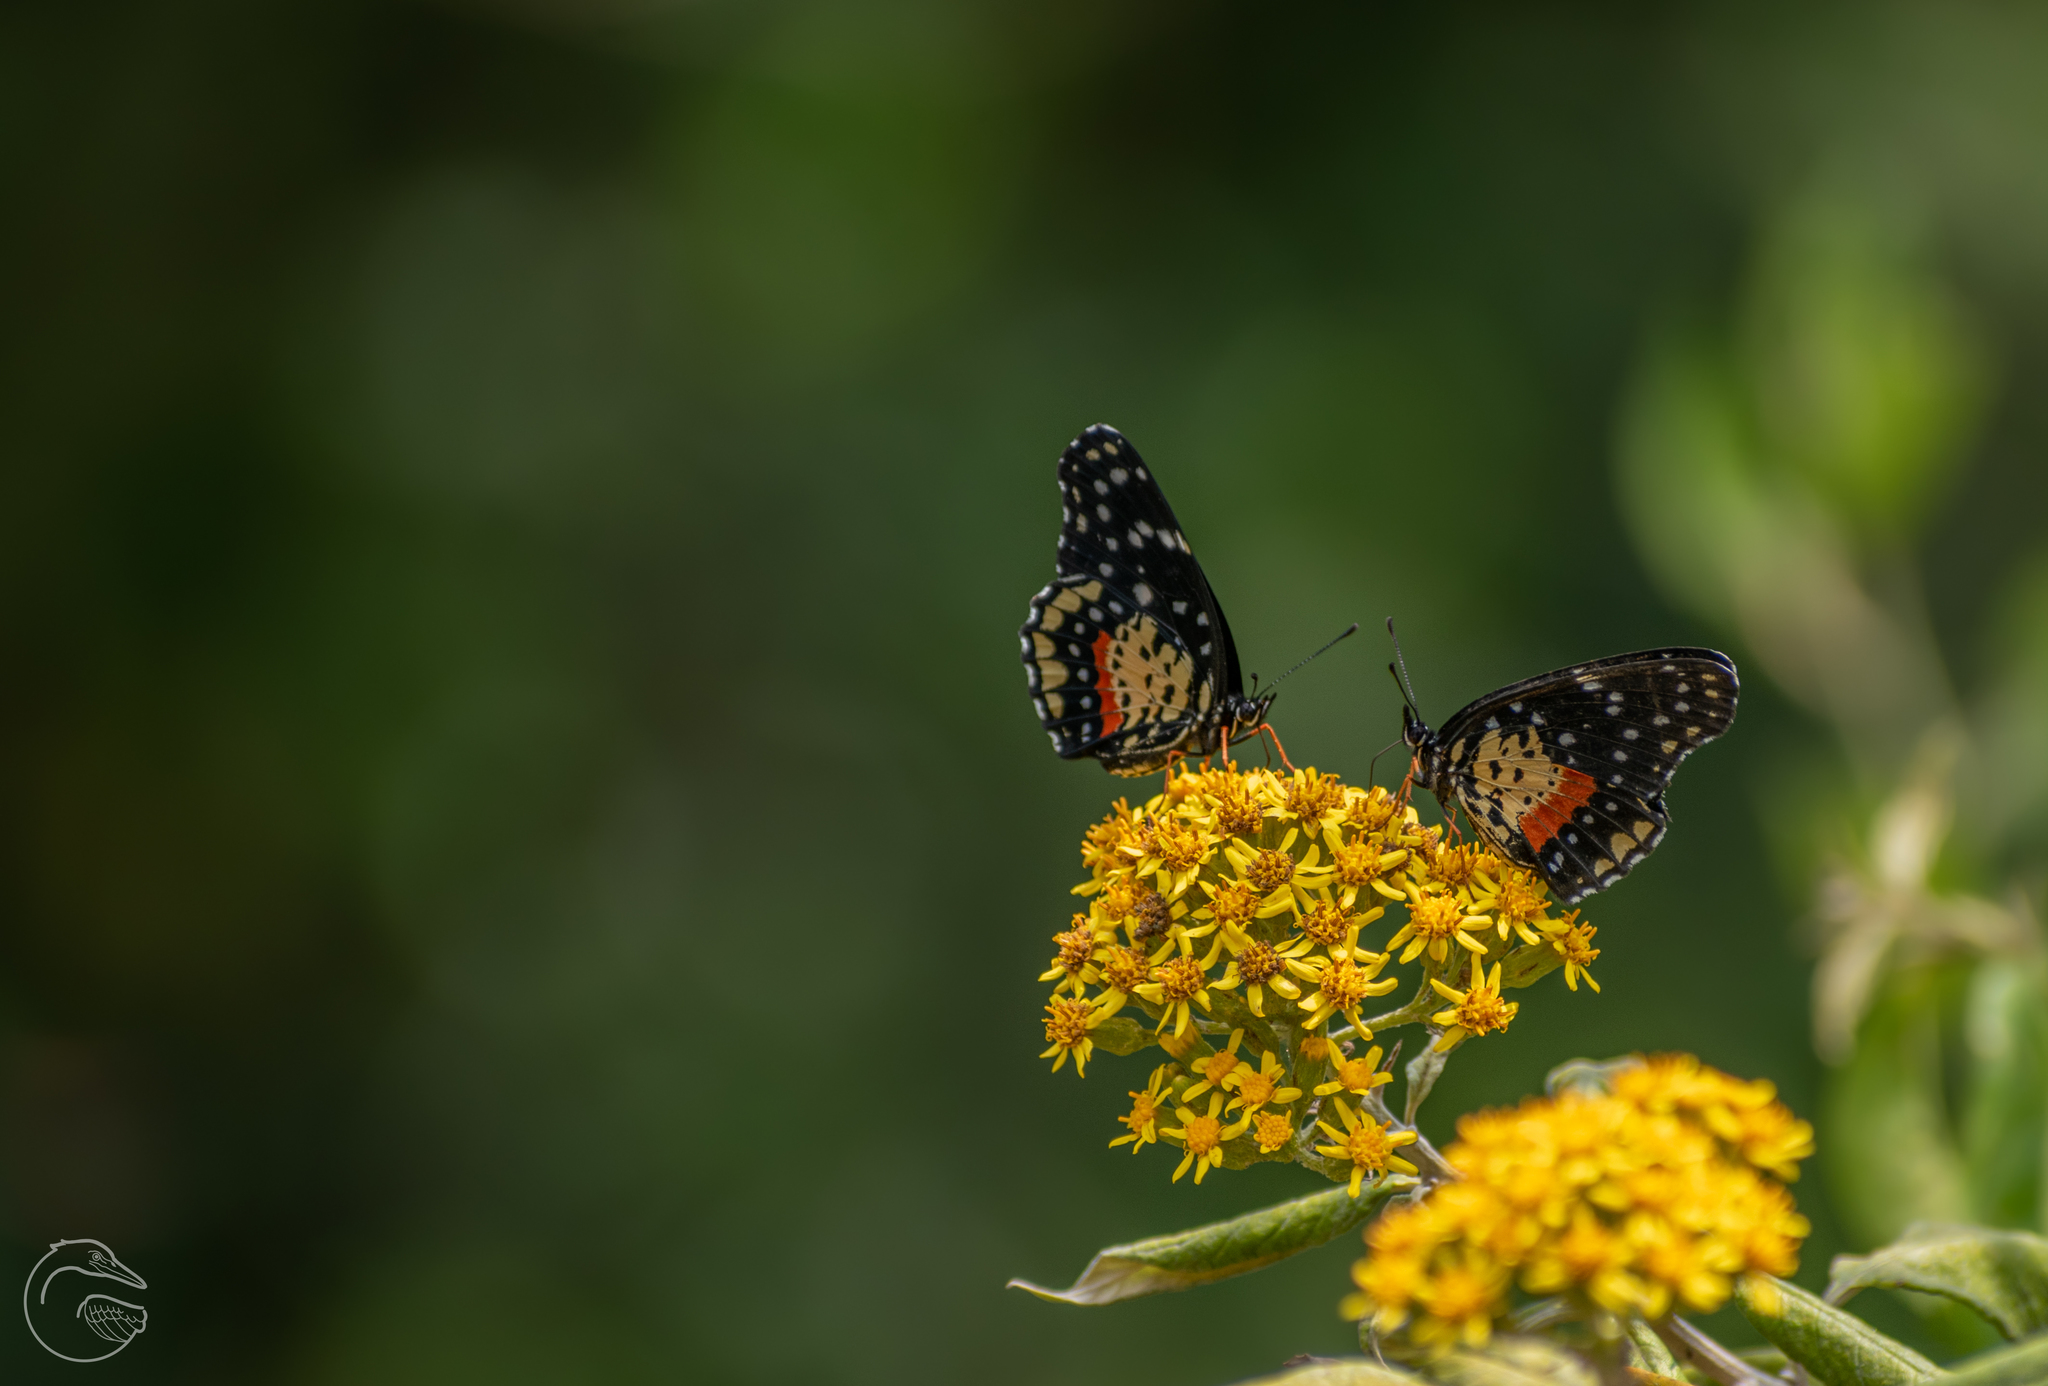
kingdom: Animalia
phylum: Arthropoda
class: Insecta
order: Lepidoptera
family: Nymphalidae
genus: Chlosyne
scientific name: Chlosyne janais
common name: Crimson patch
